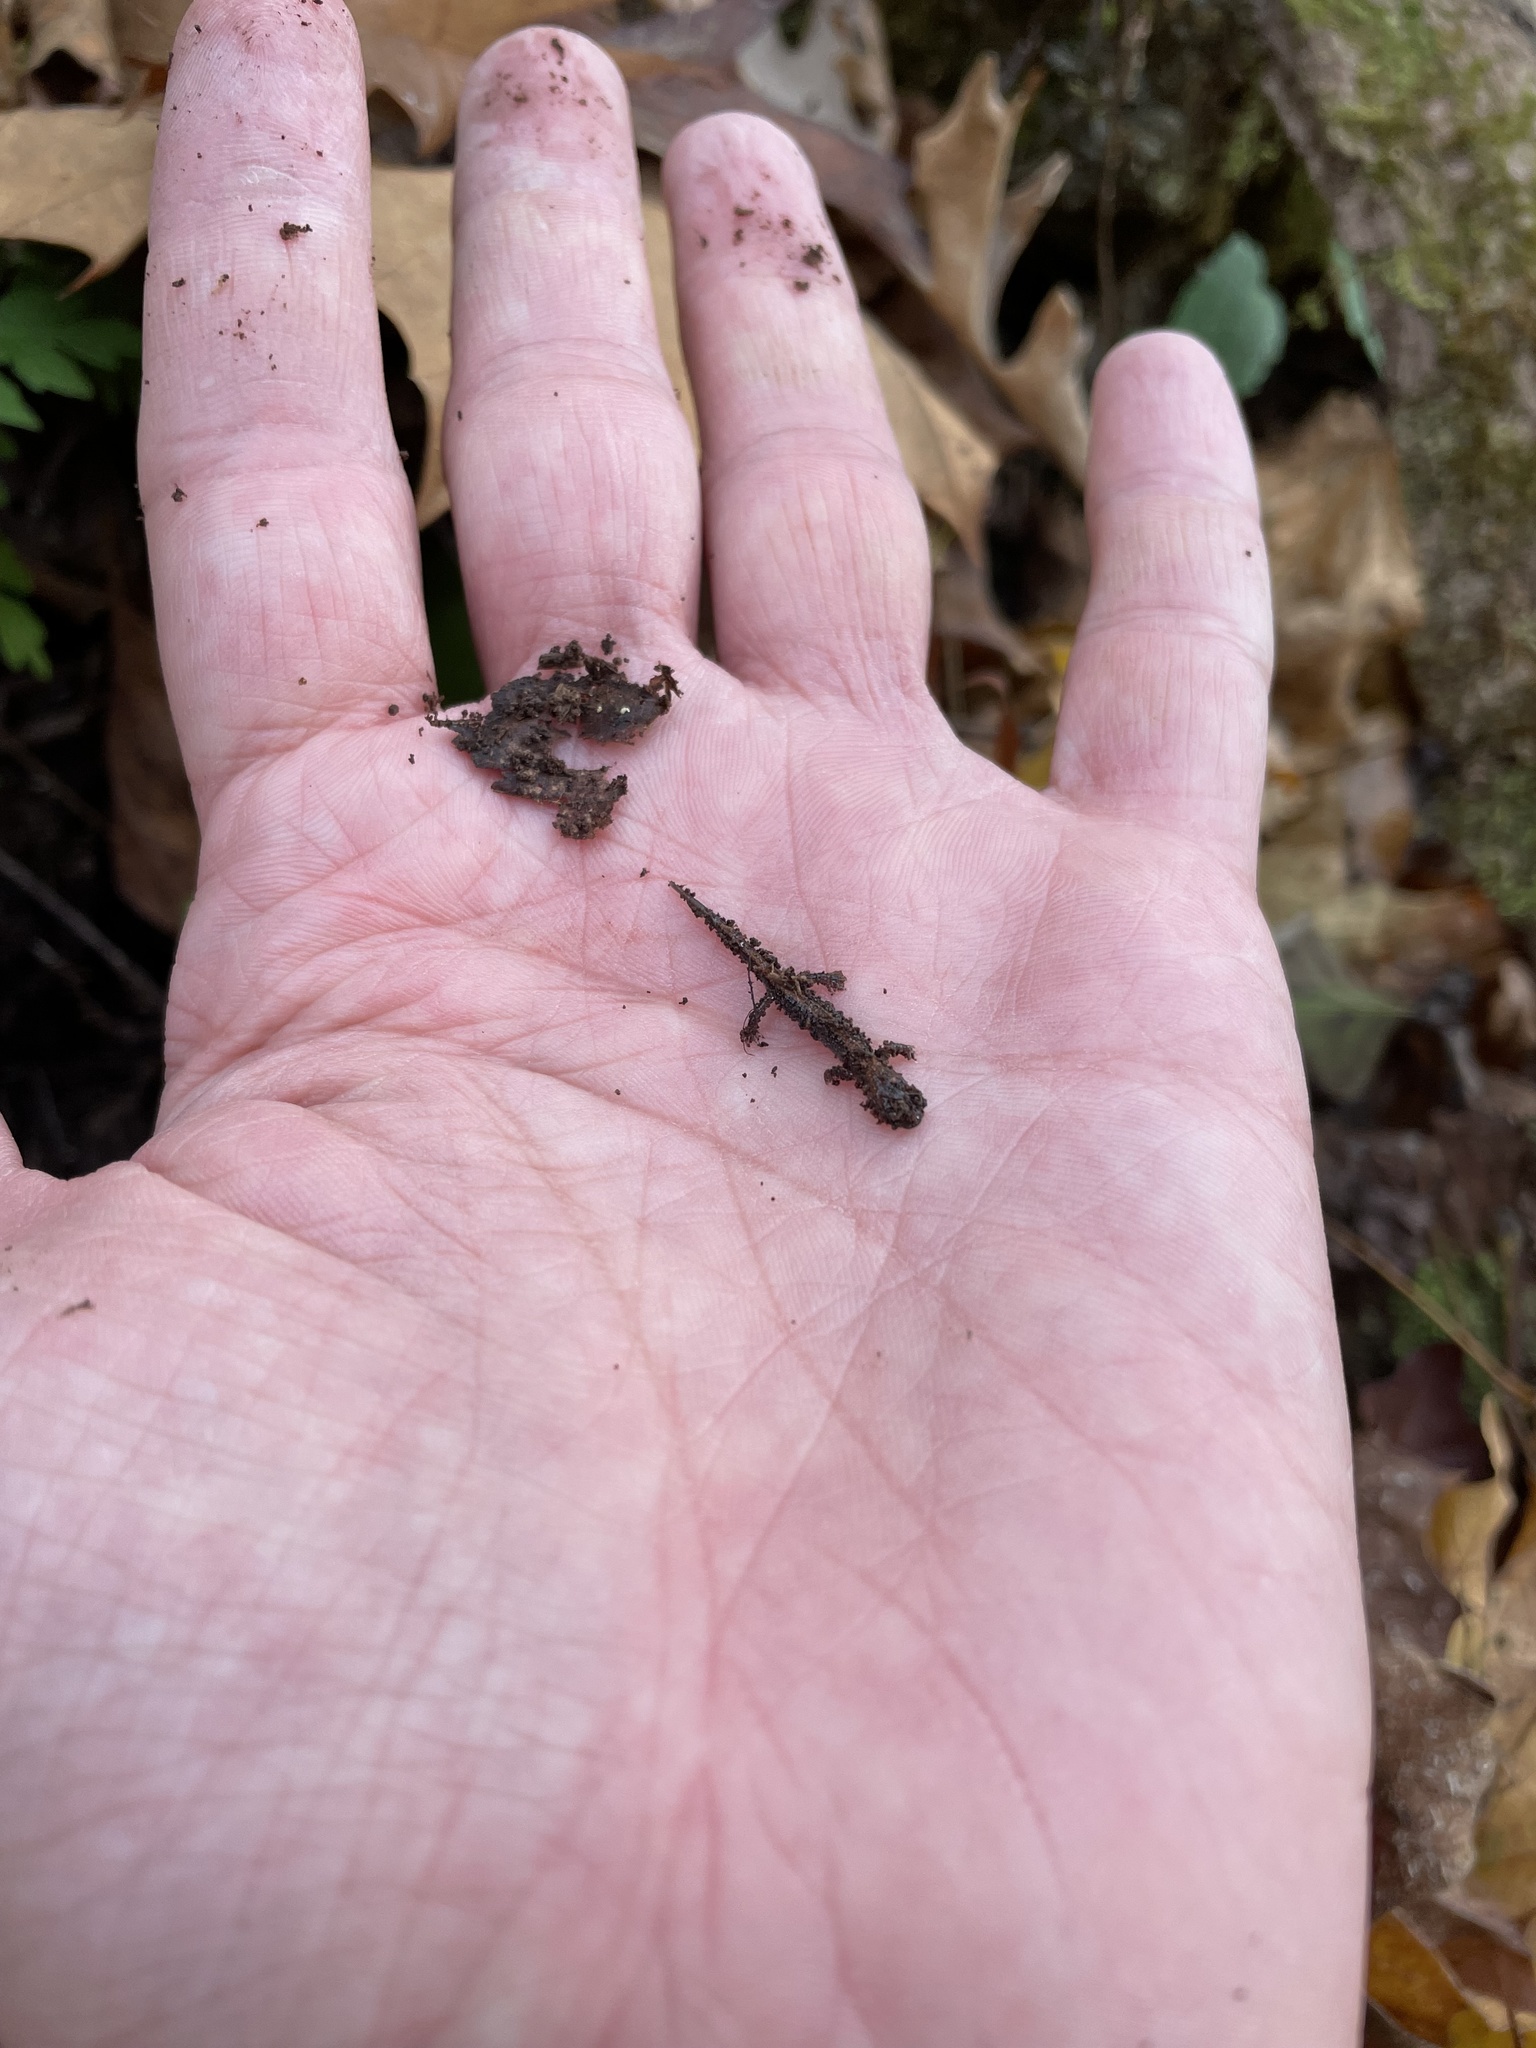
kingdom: Animalia
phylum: Chordata
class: Amphibia
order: Caudata
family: Plethodontidae
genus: Plethodon
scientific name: Plethodon cinereus
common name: Redback salamander
